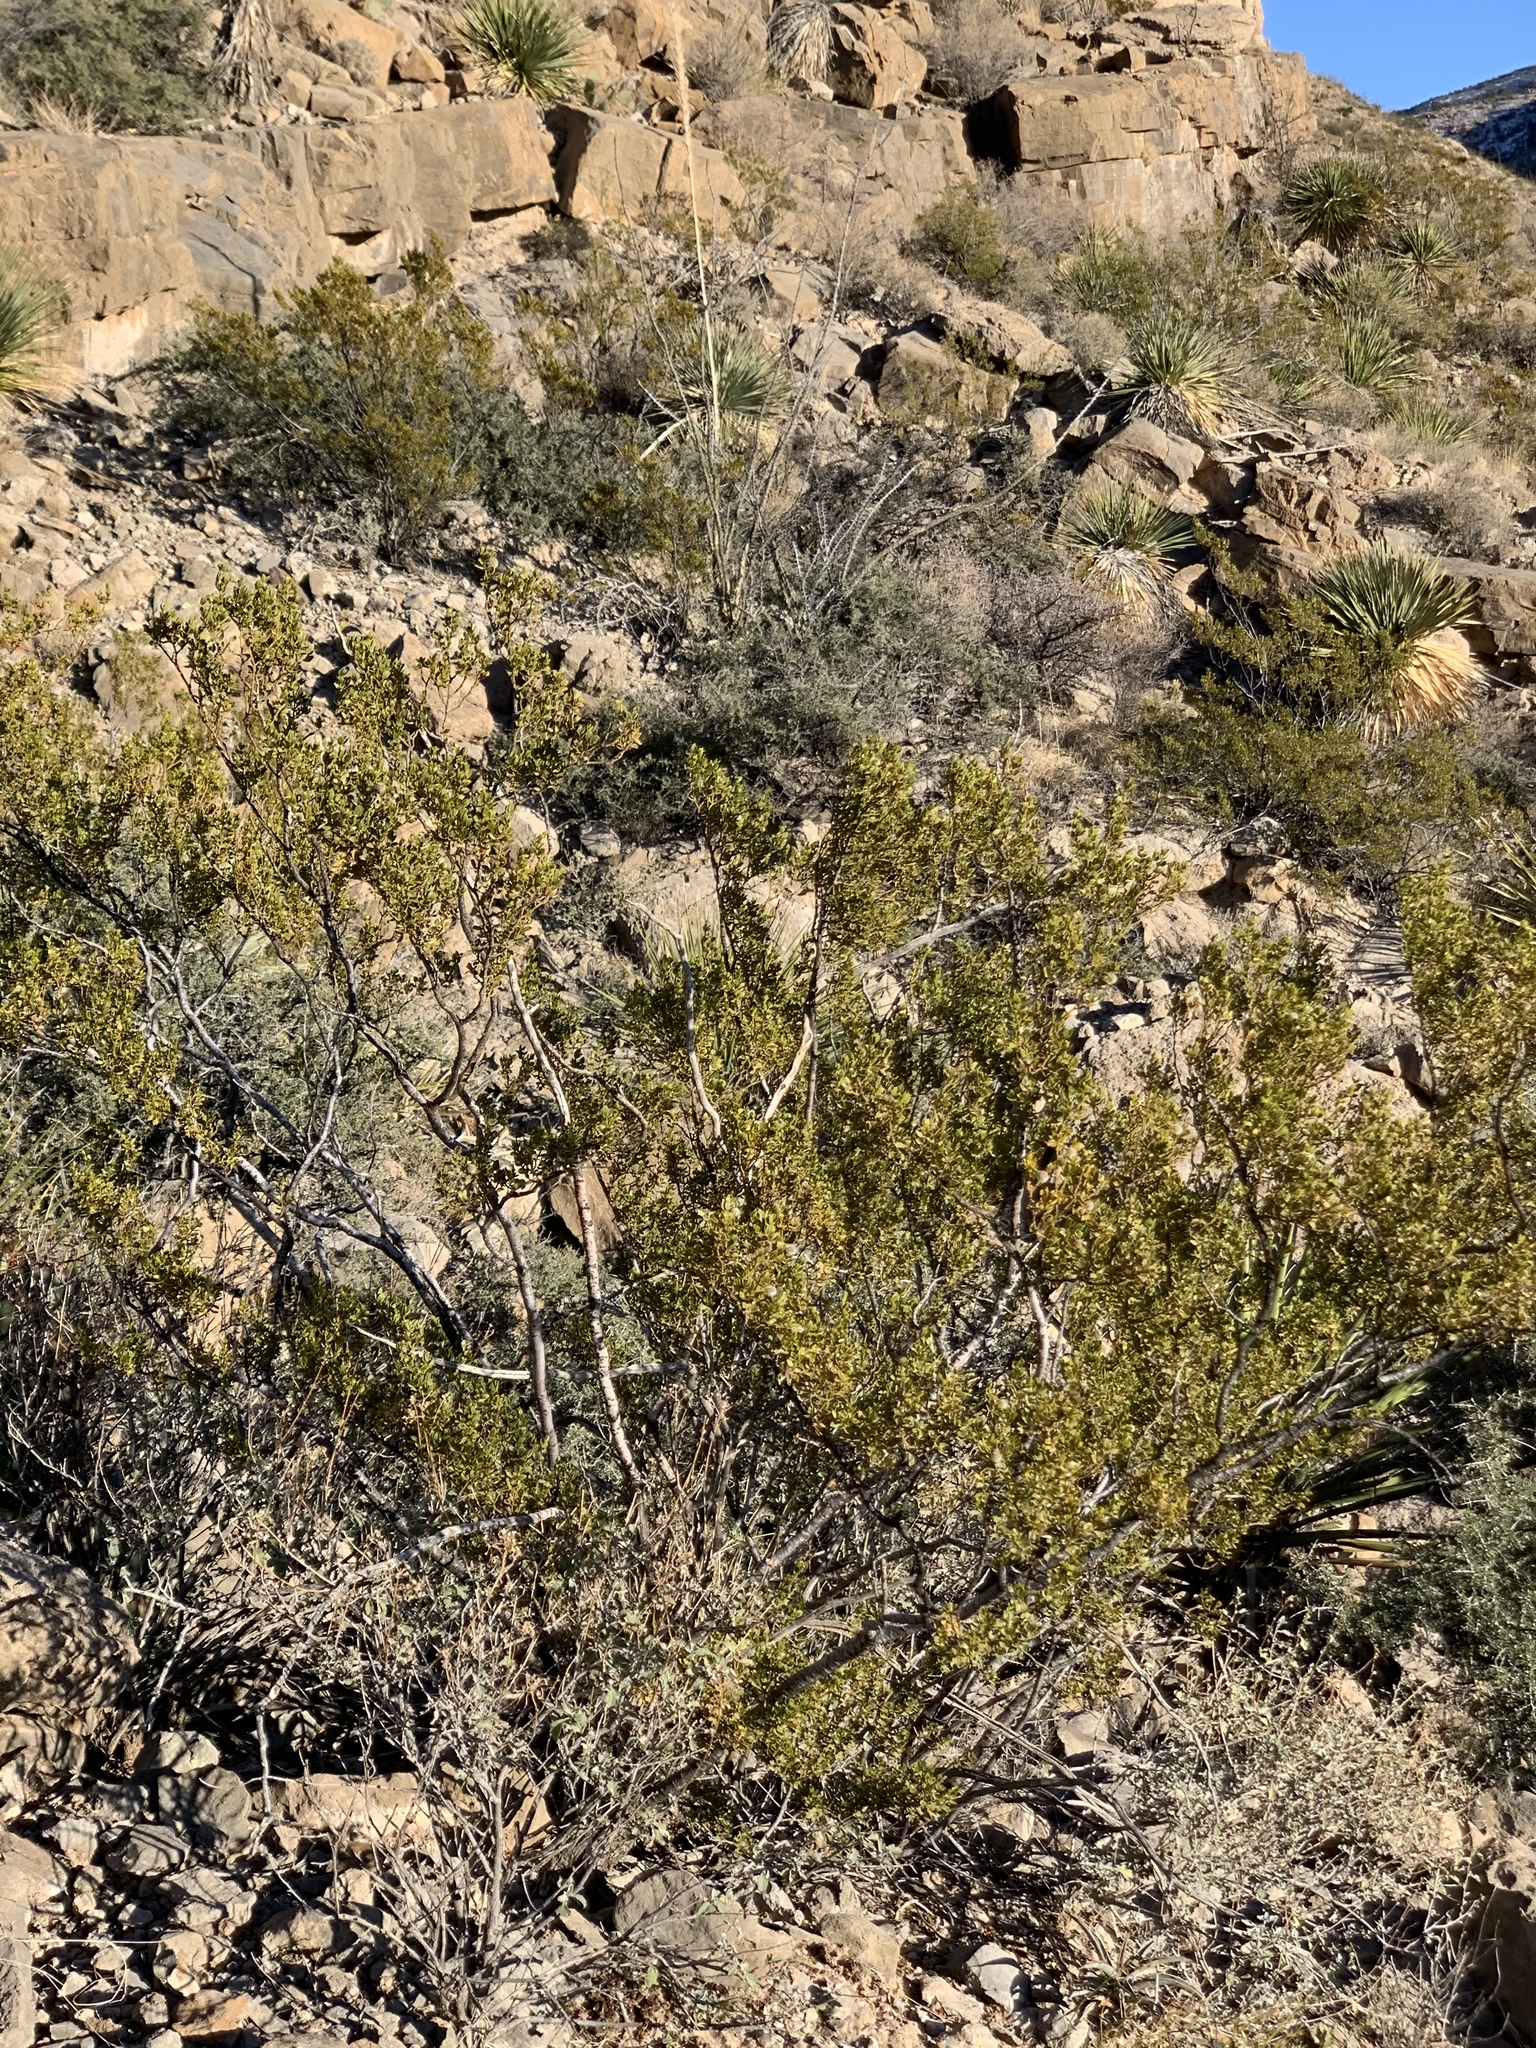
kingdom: Plantae
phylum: Tracheophyta
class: Magnoliopsida
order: Zygophyllales
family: Zygophyllaceae
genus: Larrea
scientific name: Larrea tridentata
